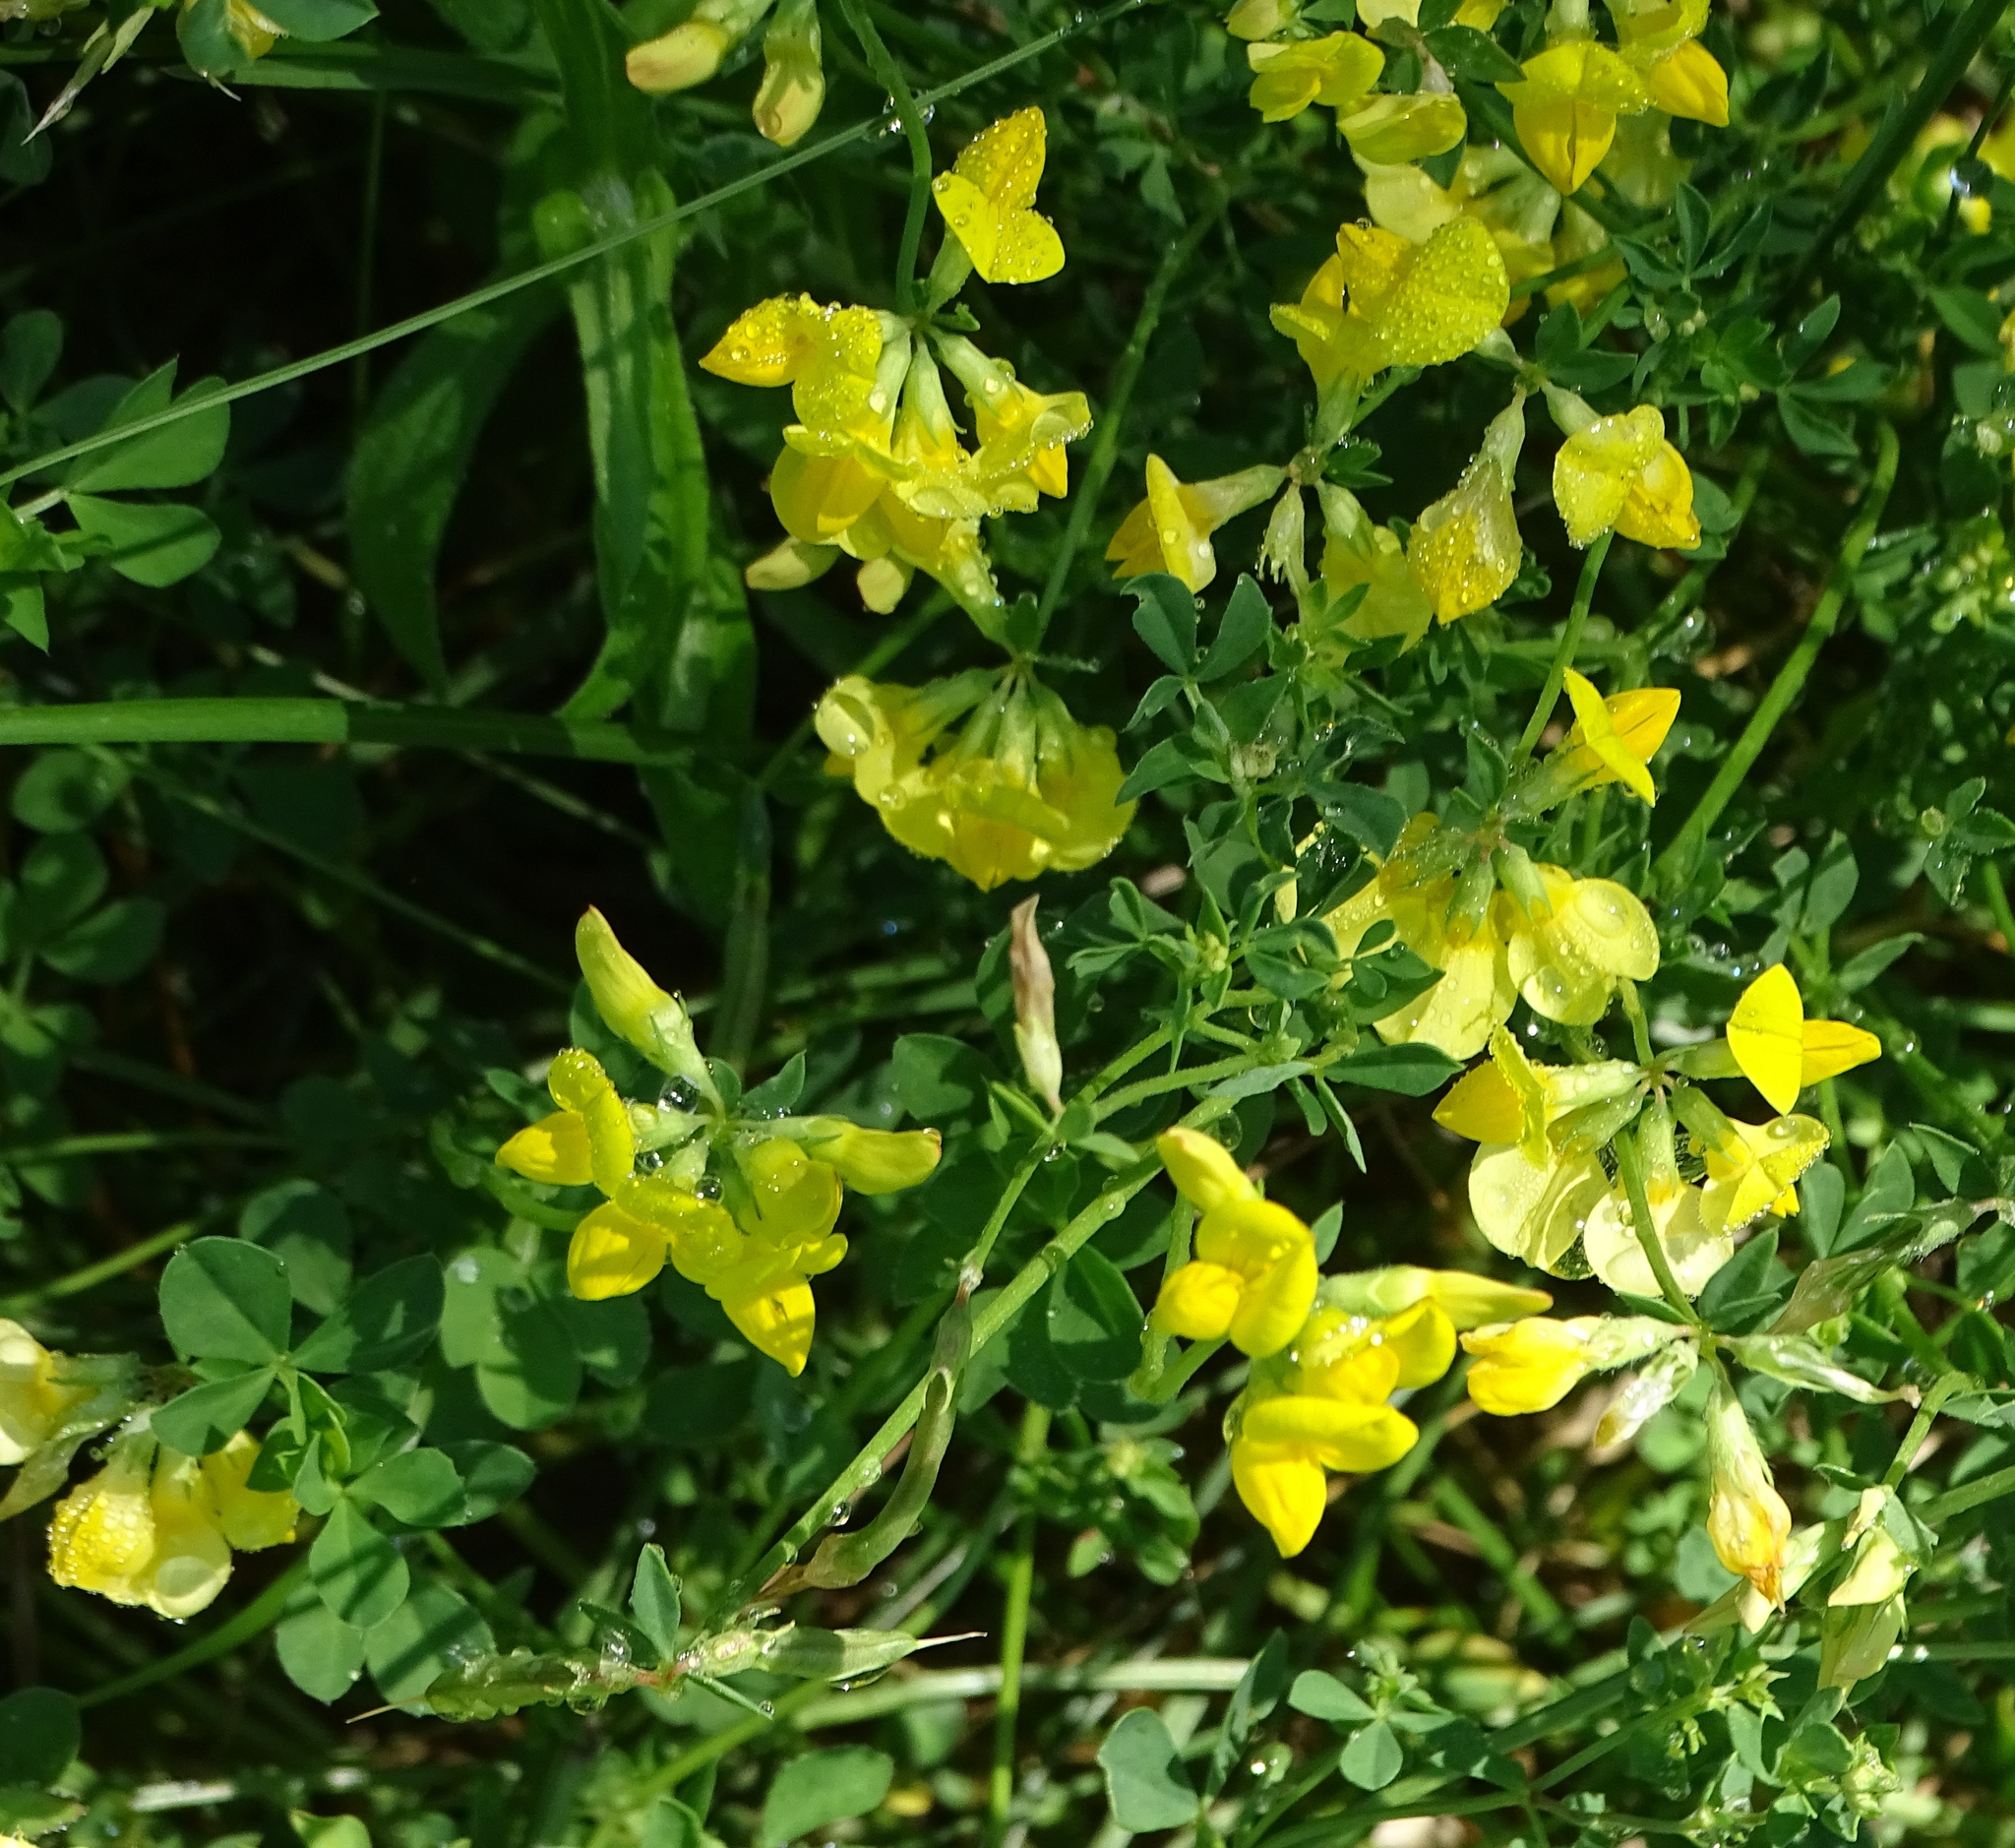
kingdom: Plantae
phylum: Tracheophyta
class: Magnoliopsida
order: Fabales
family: Fabaceae
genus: Lotus
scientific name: Lotus corniculatus
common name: Common bird's-foot-trefoil
